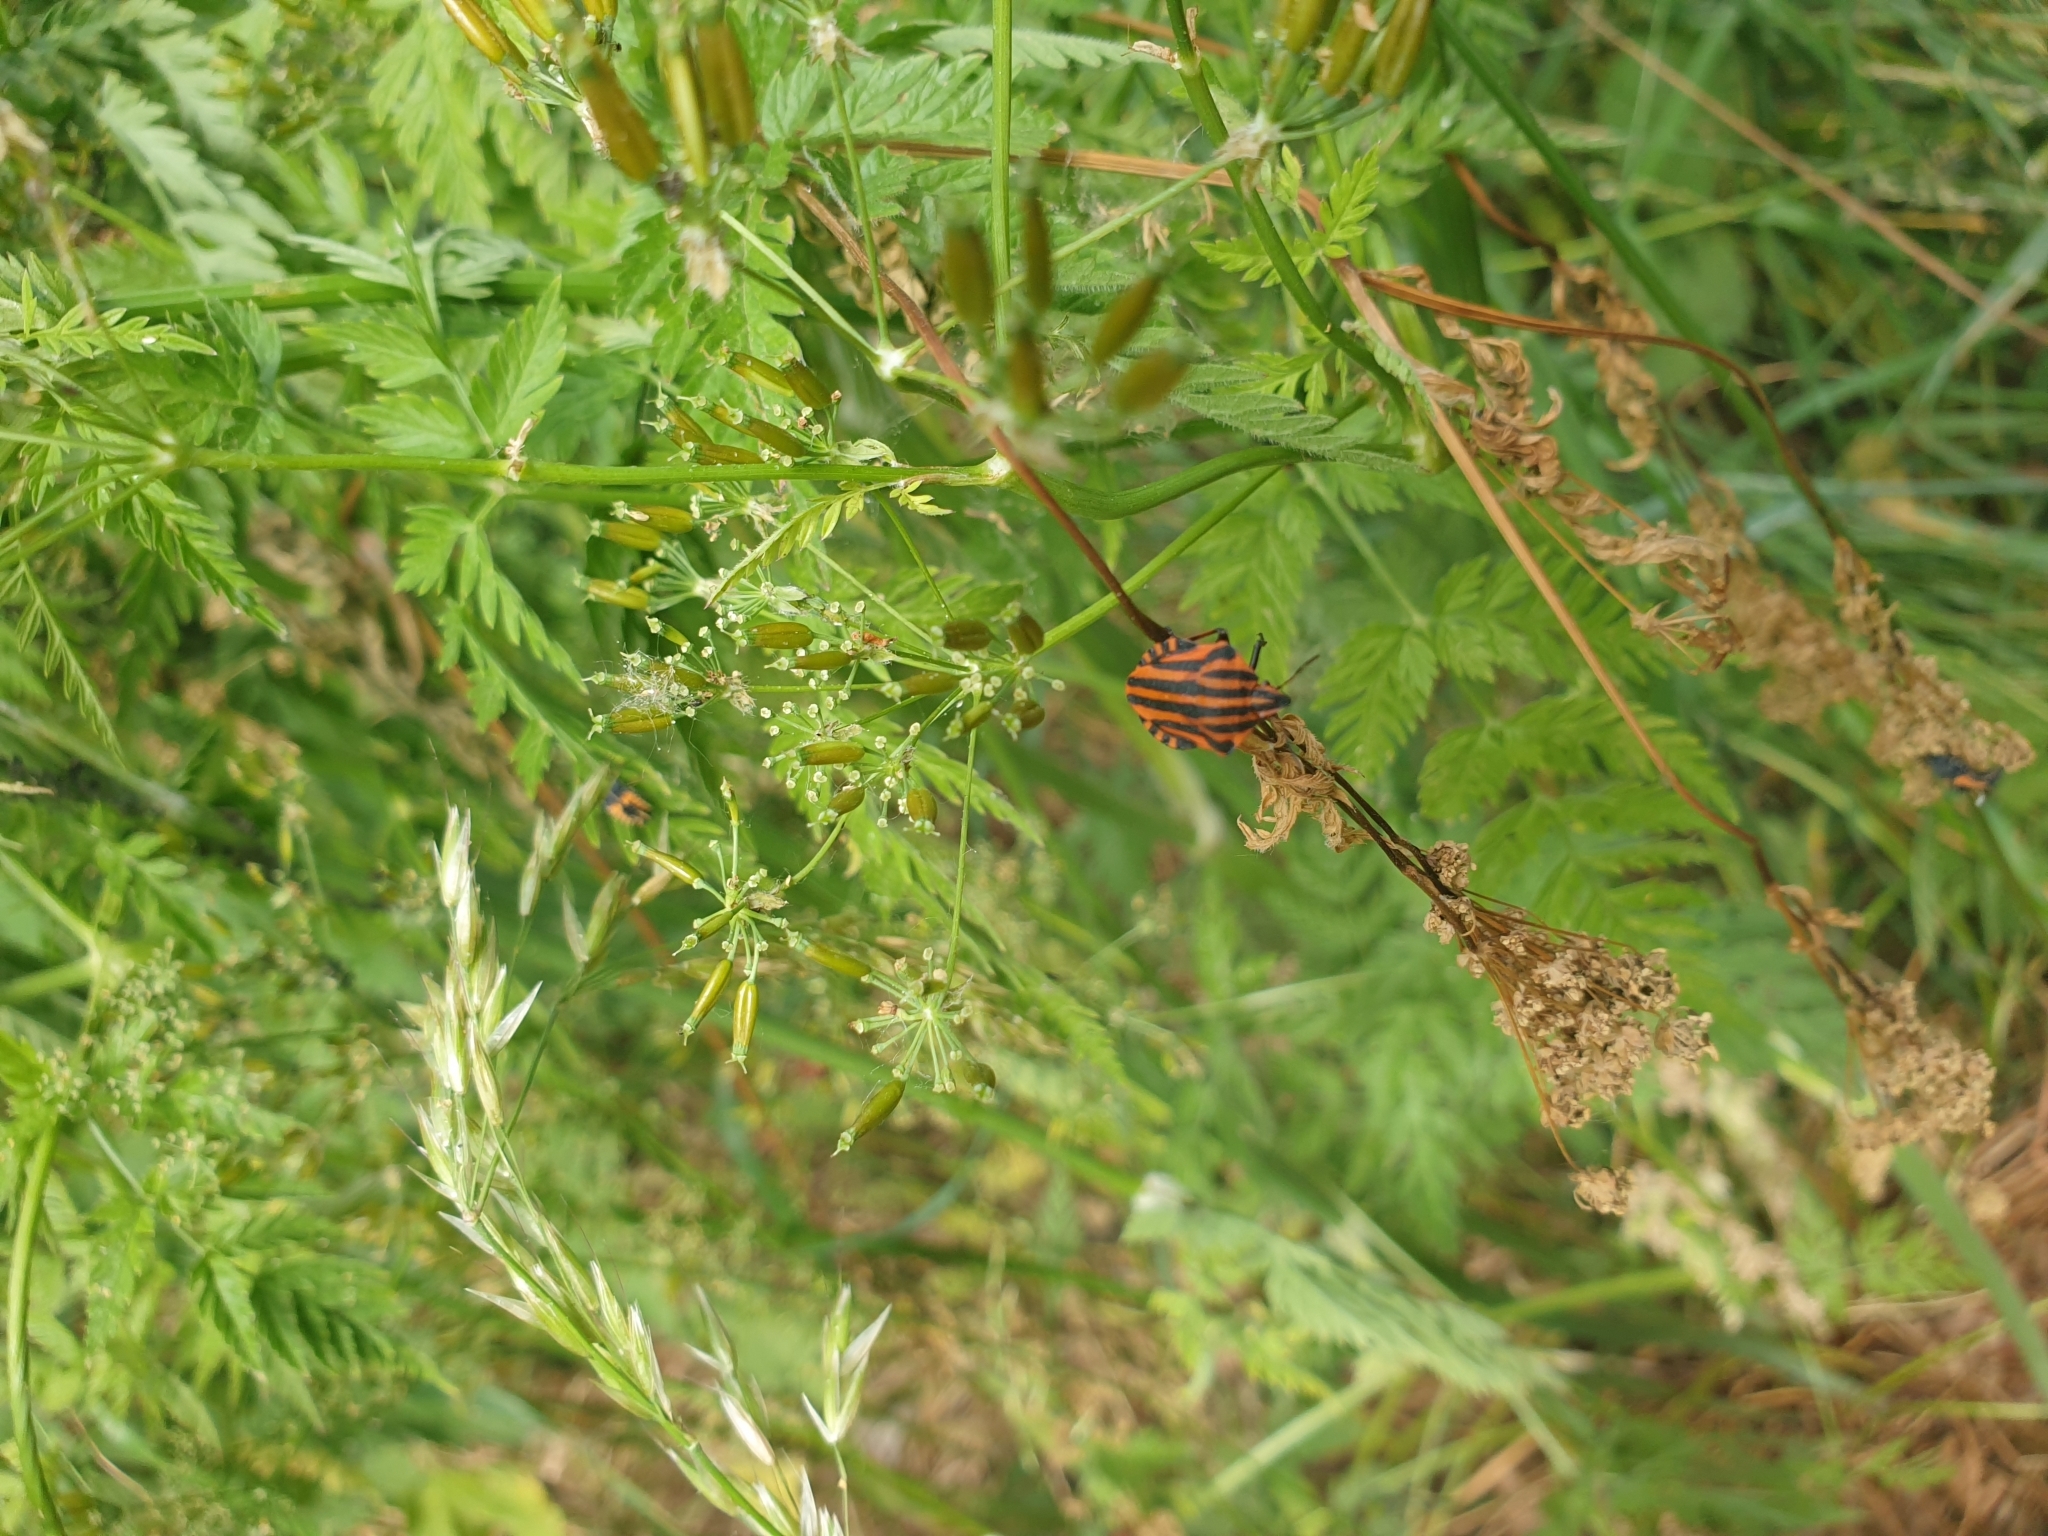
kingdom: Animalia
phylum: Arthropoda
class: Insecta
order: Hemiptera
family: Pentatomidae
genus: Graphosoma
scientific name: Graphosoma italicum
